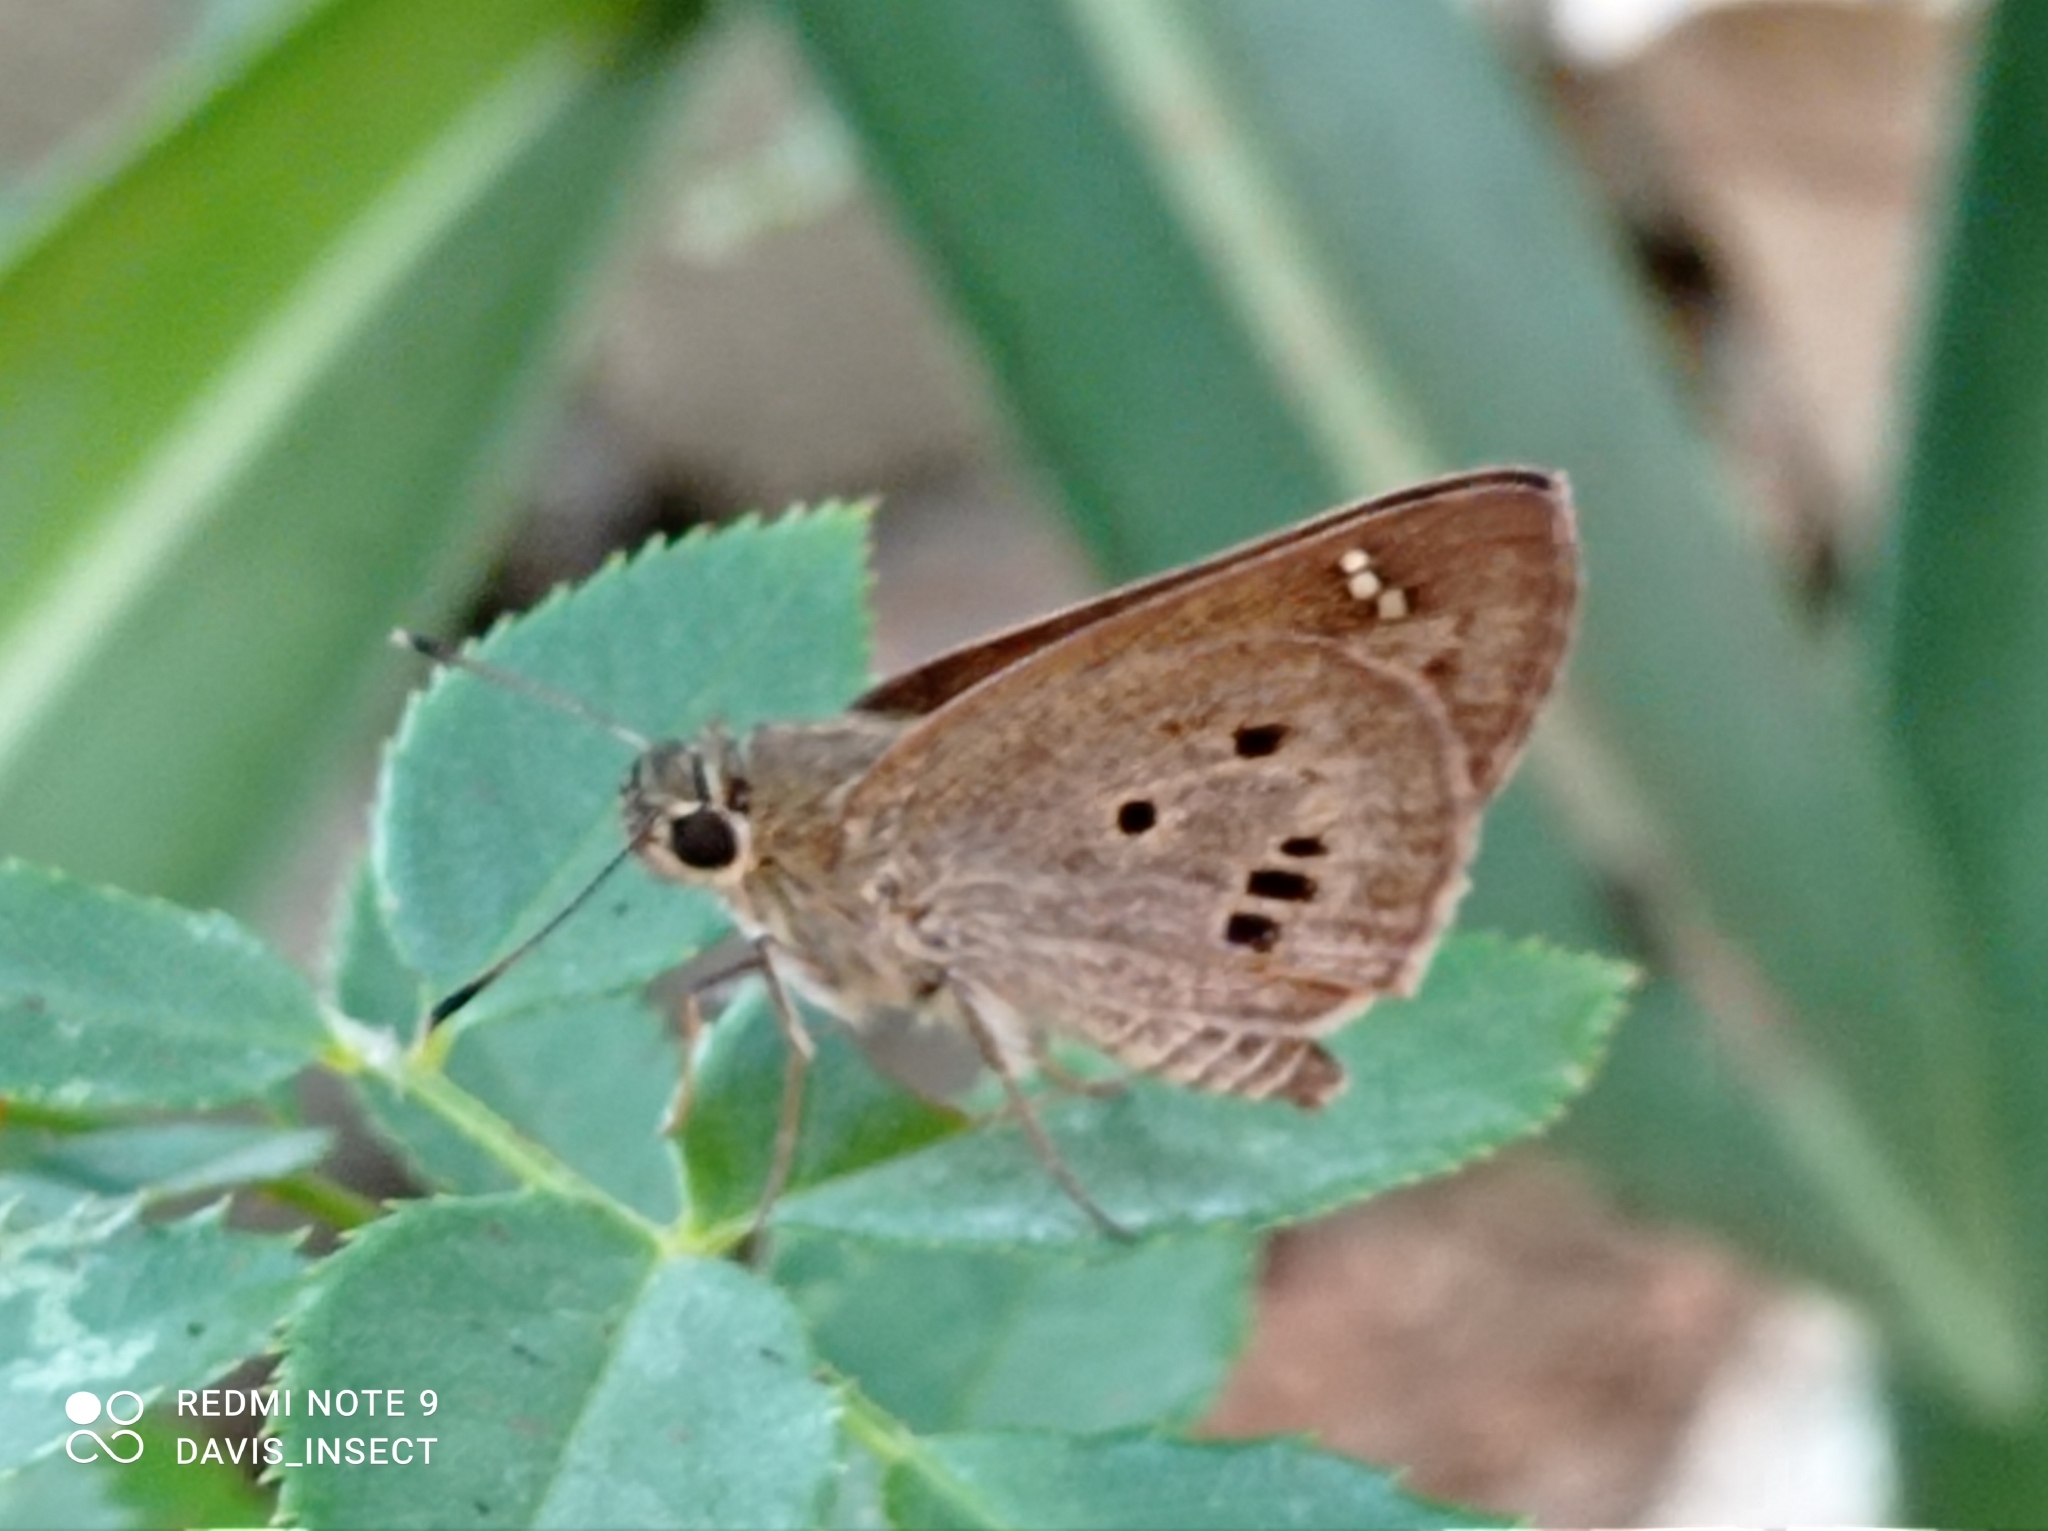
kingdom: Animalia
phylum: Arthropoda
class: Insecta
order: Lepidoptera
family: Hesperiidae
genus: Suastus
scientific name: Suastus gremius
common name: Indian palm bob
